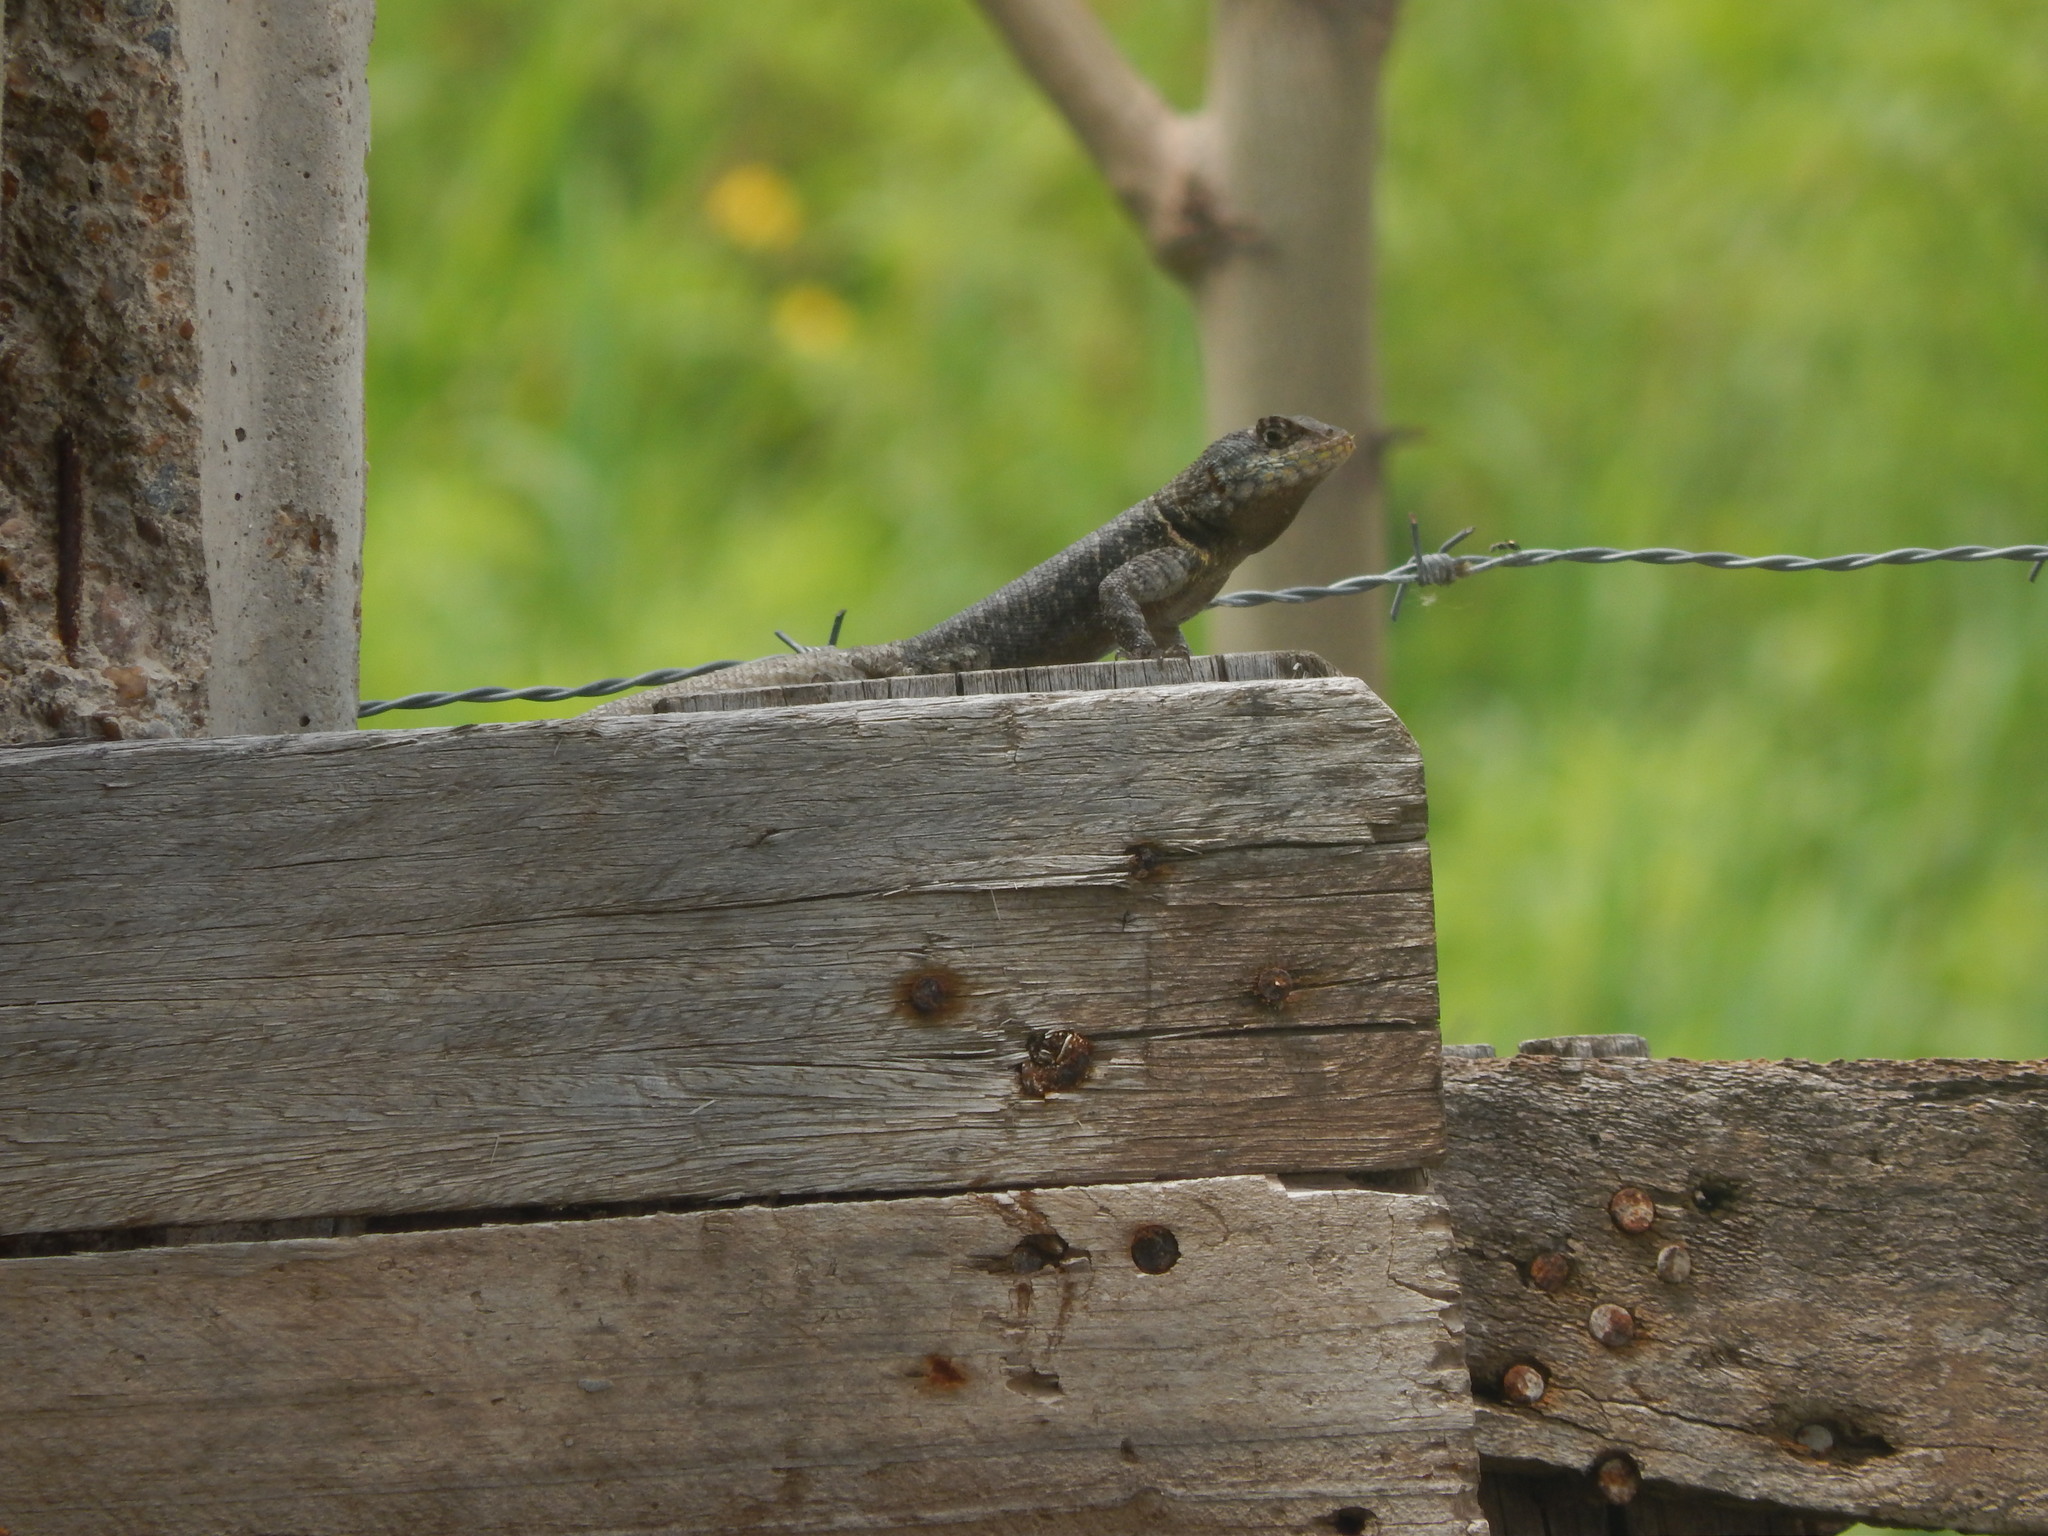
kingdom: Animalia
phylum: Chordata
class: Squamata
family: Tropiduridae
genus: Tropidurus
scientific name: Tropidurus hispidus
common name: Peters' lava lizard
